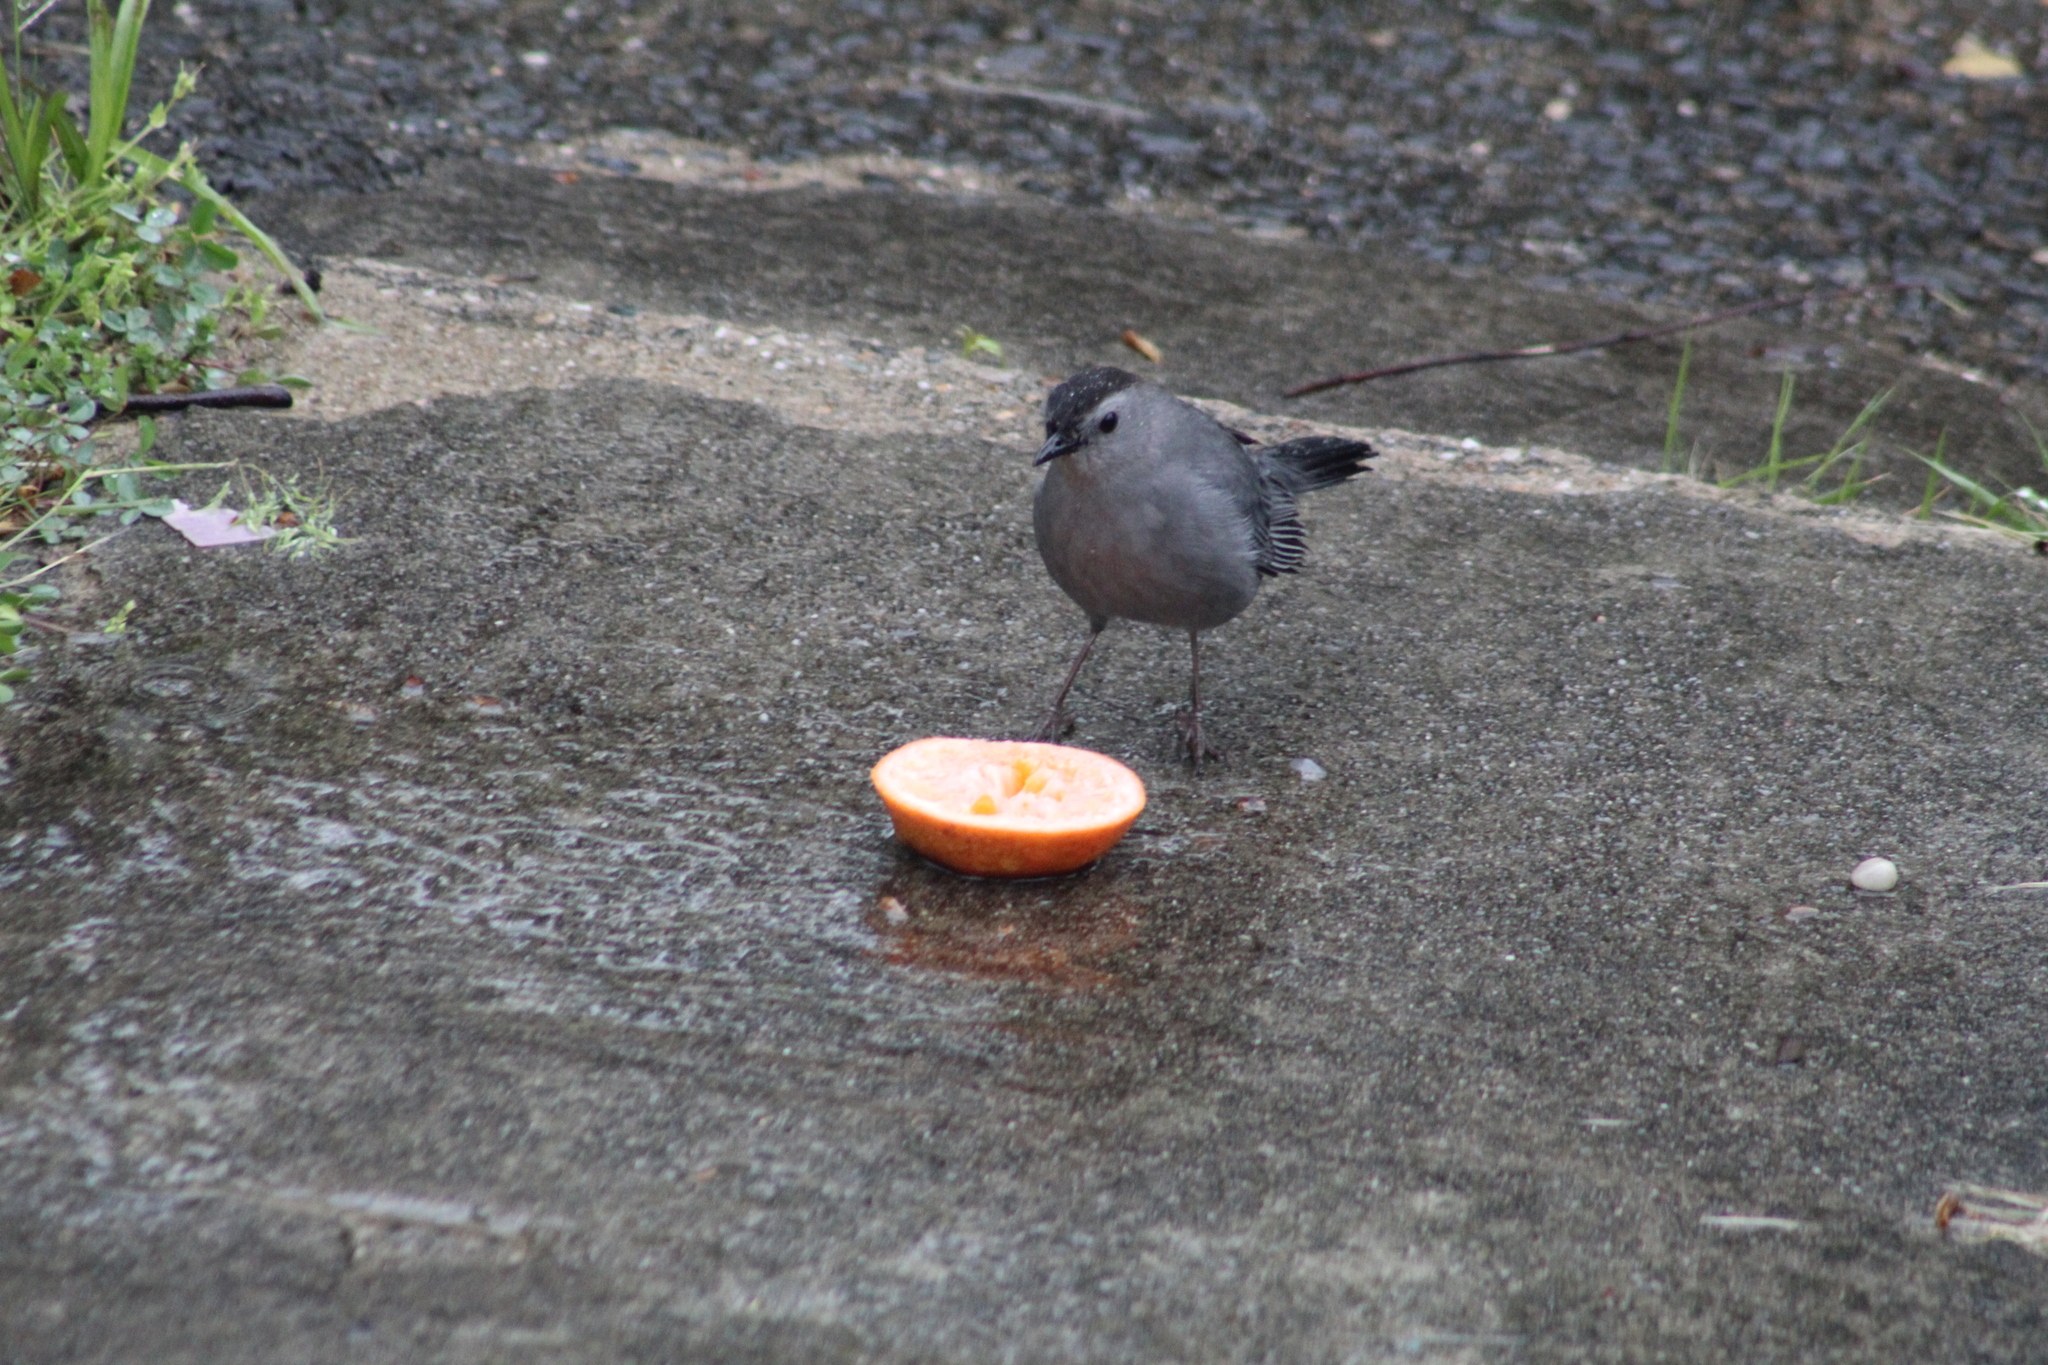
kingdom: Animalia
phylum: Chordata
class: Aves
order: Passeriformes
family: Mimidae
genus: Dumetella
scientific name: Dumetella carolinensis
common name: Gray catbird
